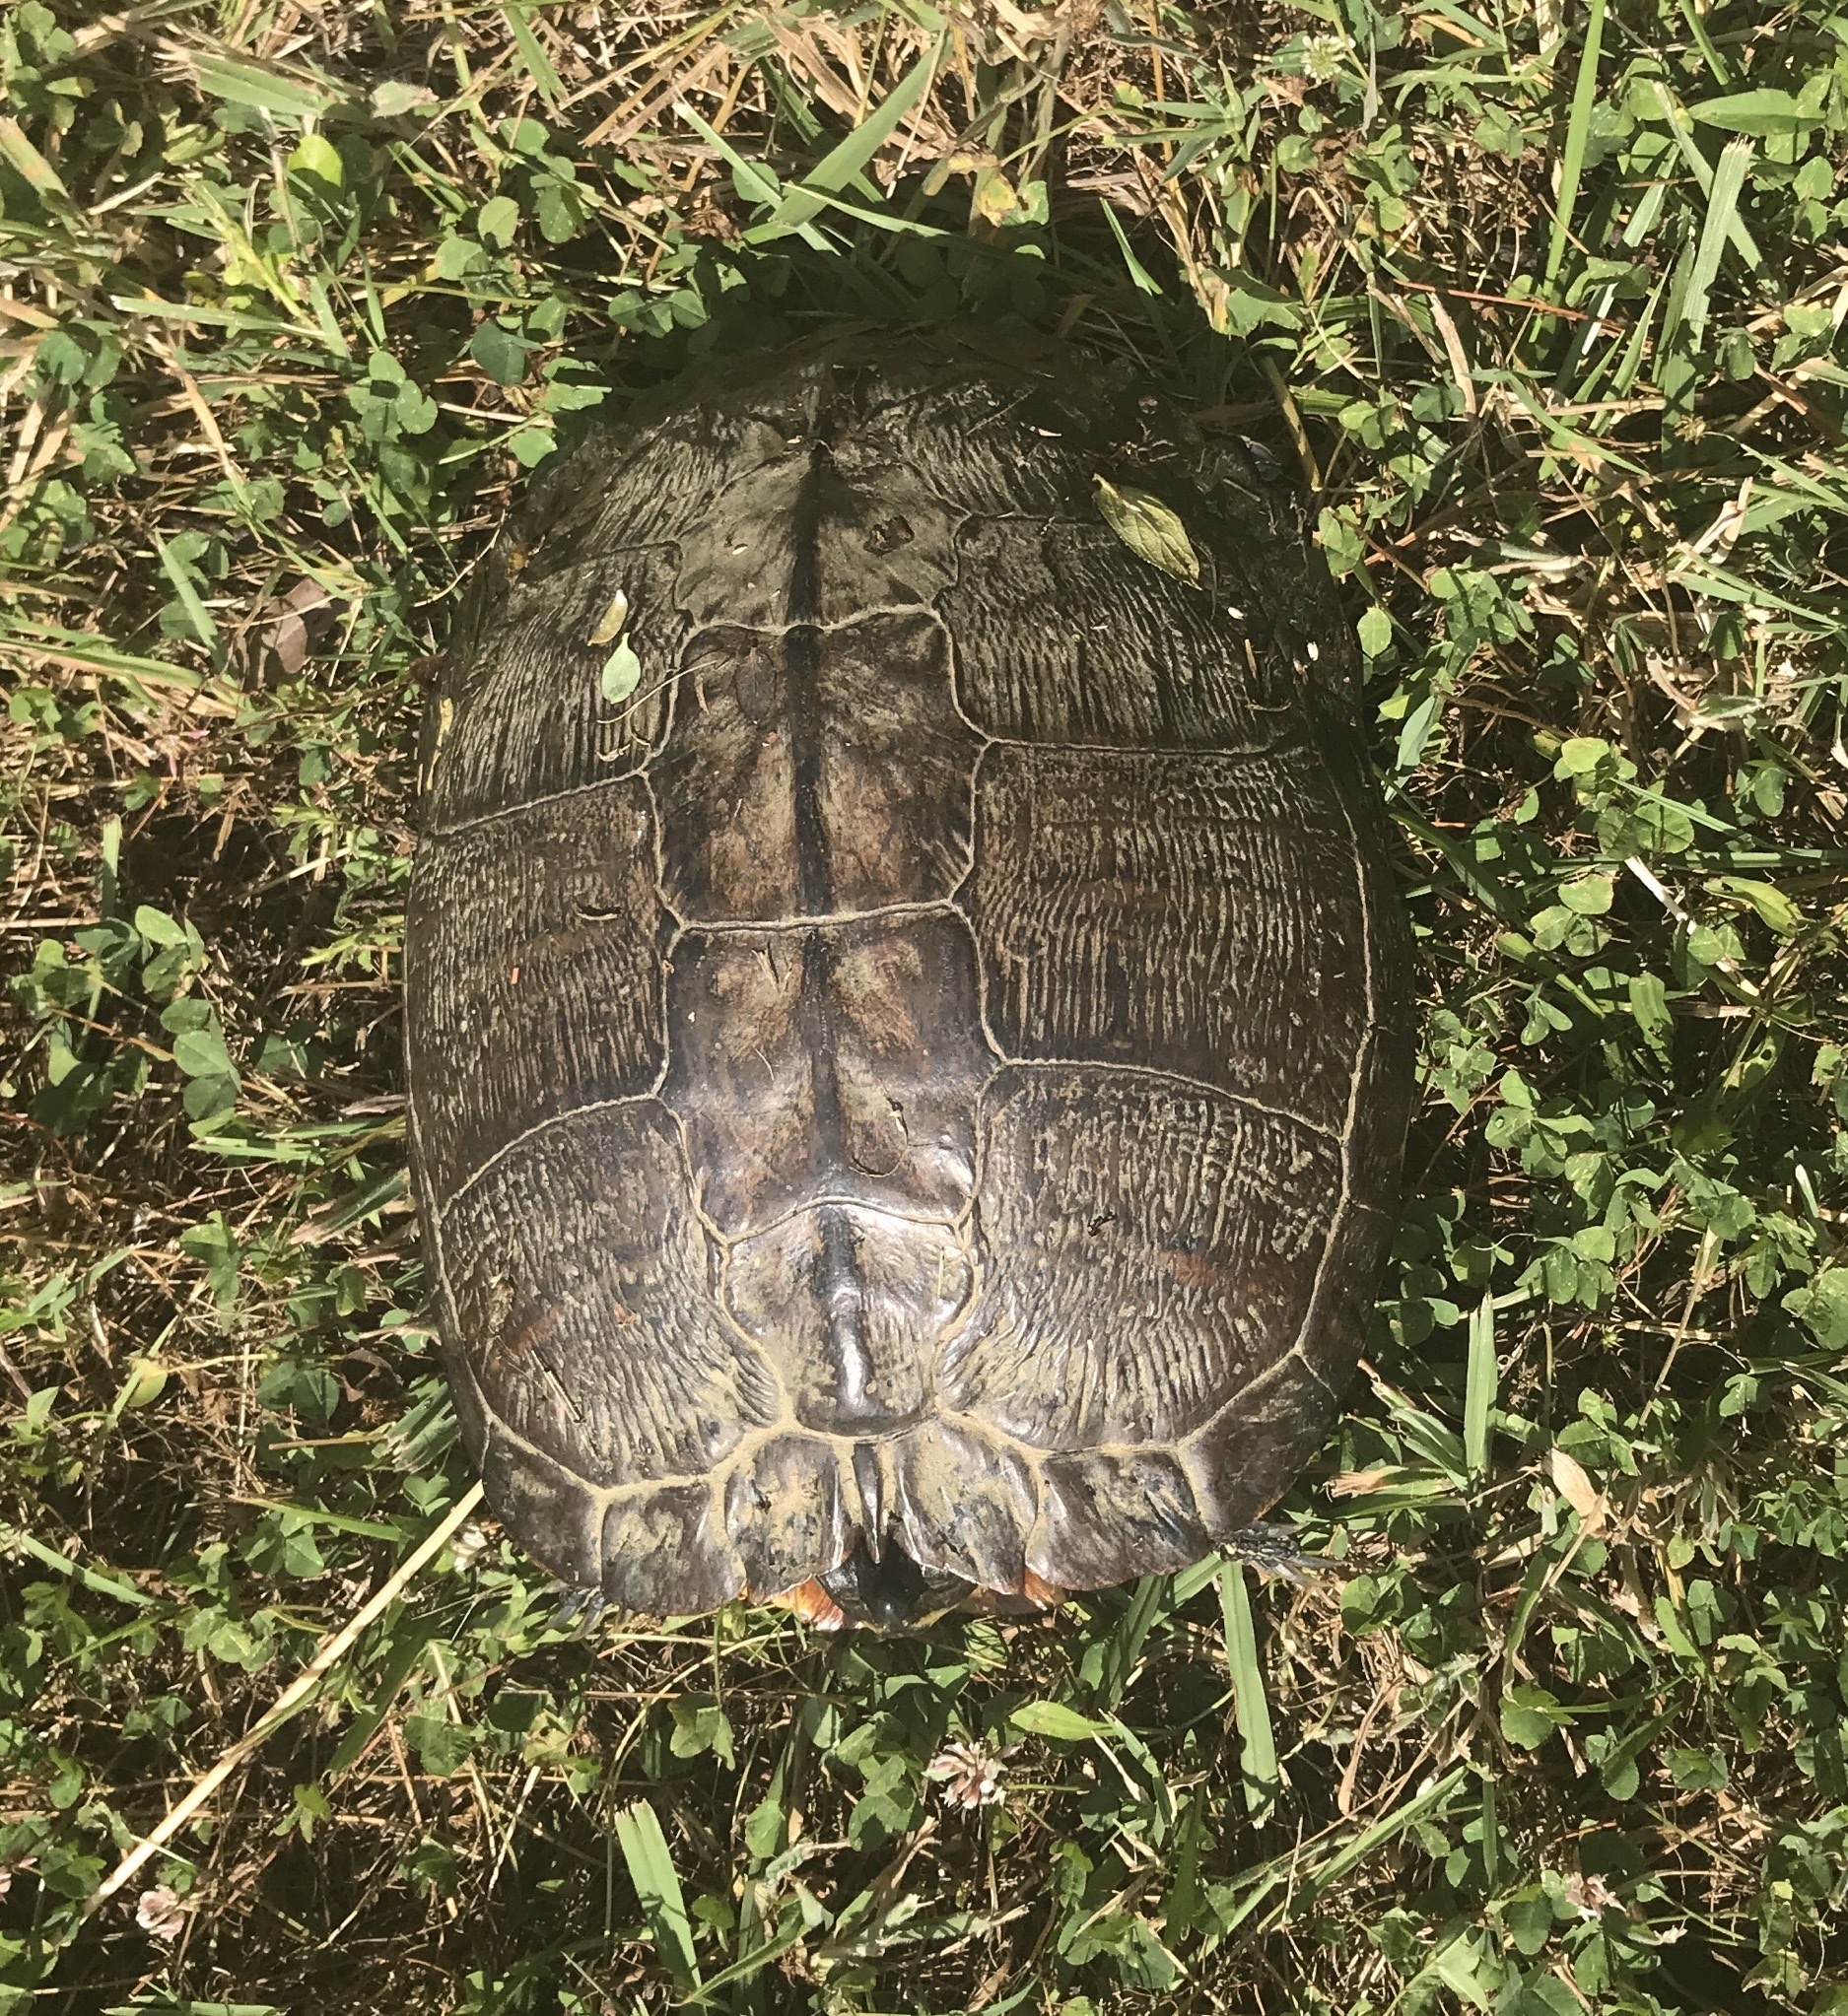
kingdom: Animalia
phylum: Chordata
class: Testudines
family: Emydidae
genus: Trachemys
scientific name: Trachemys scripta
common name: Slider
